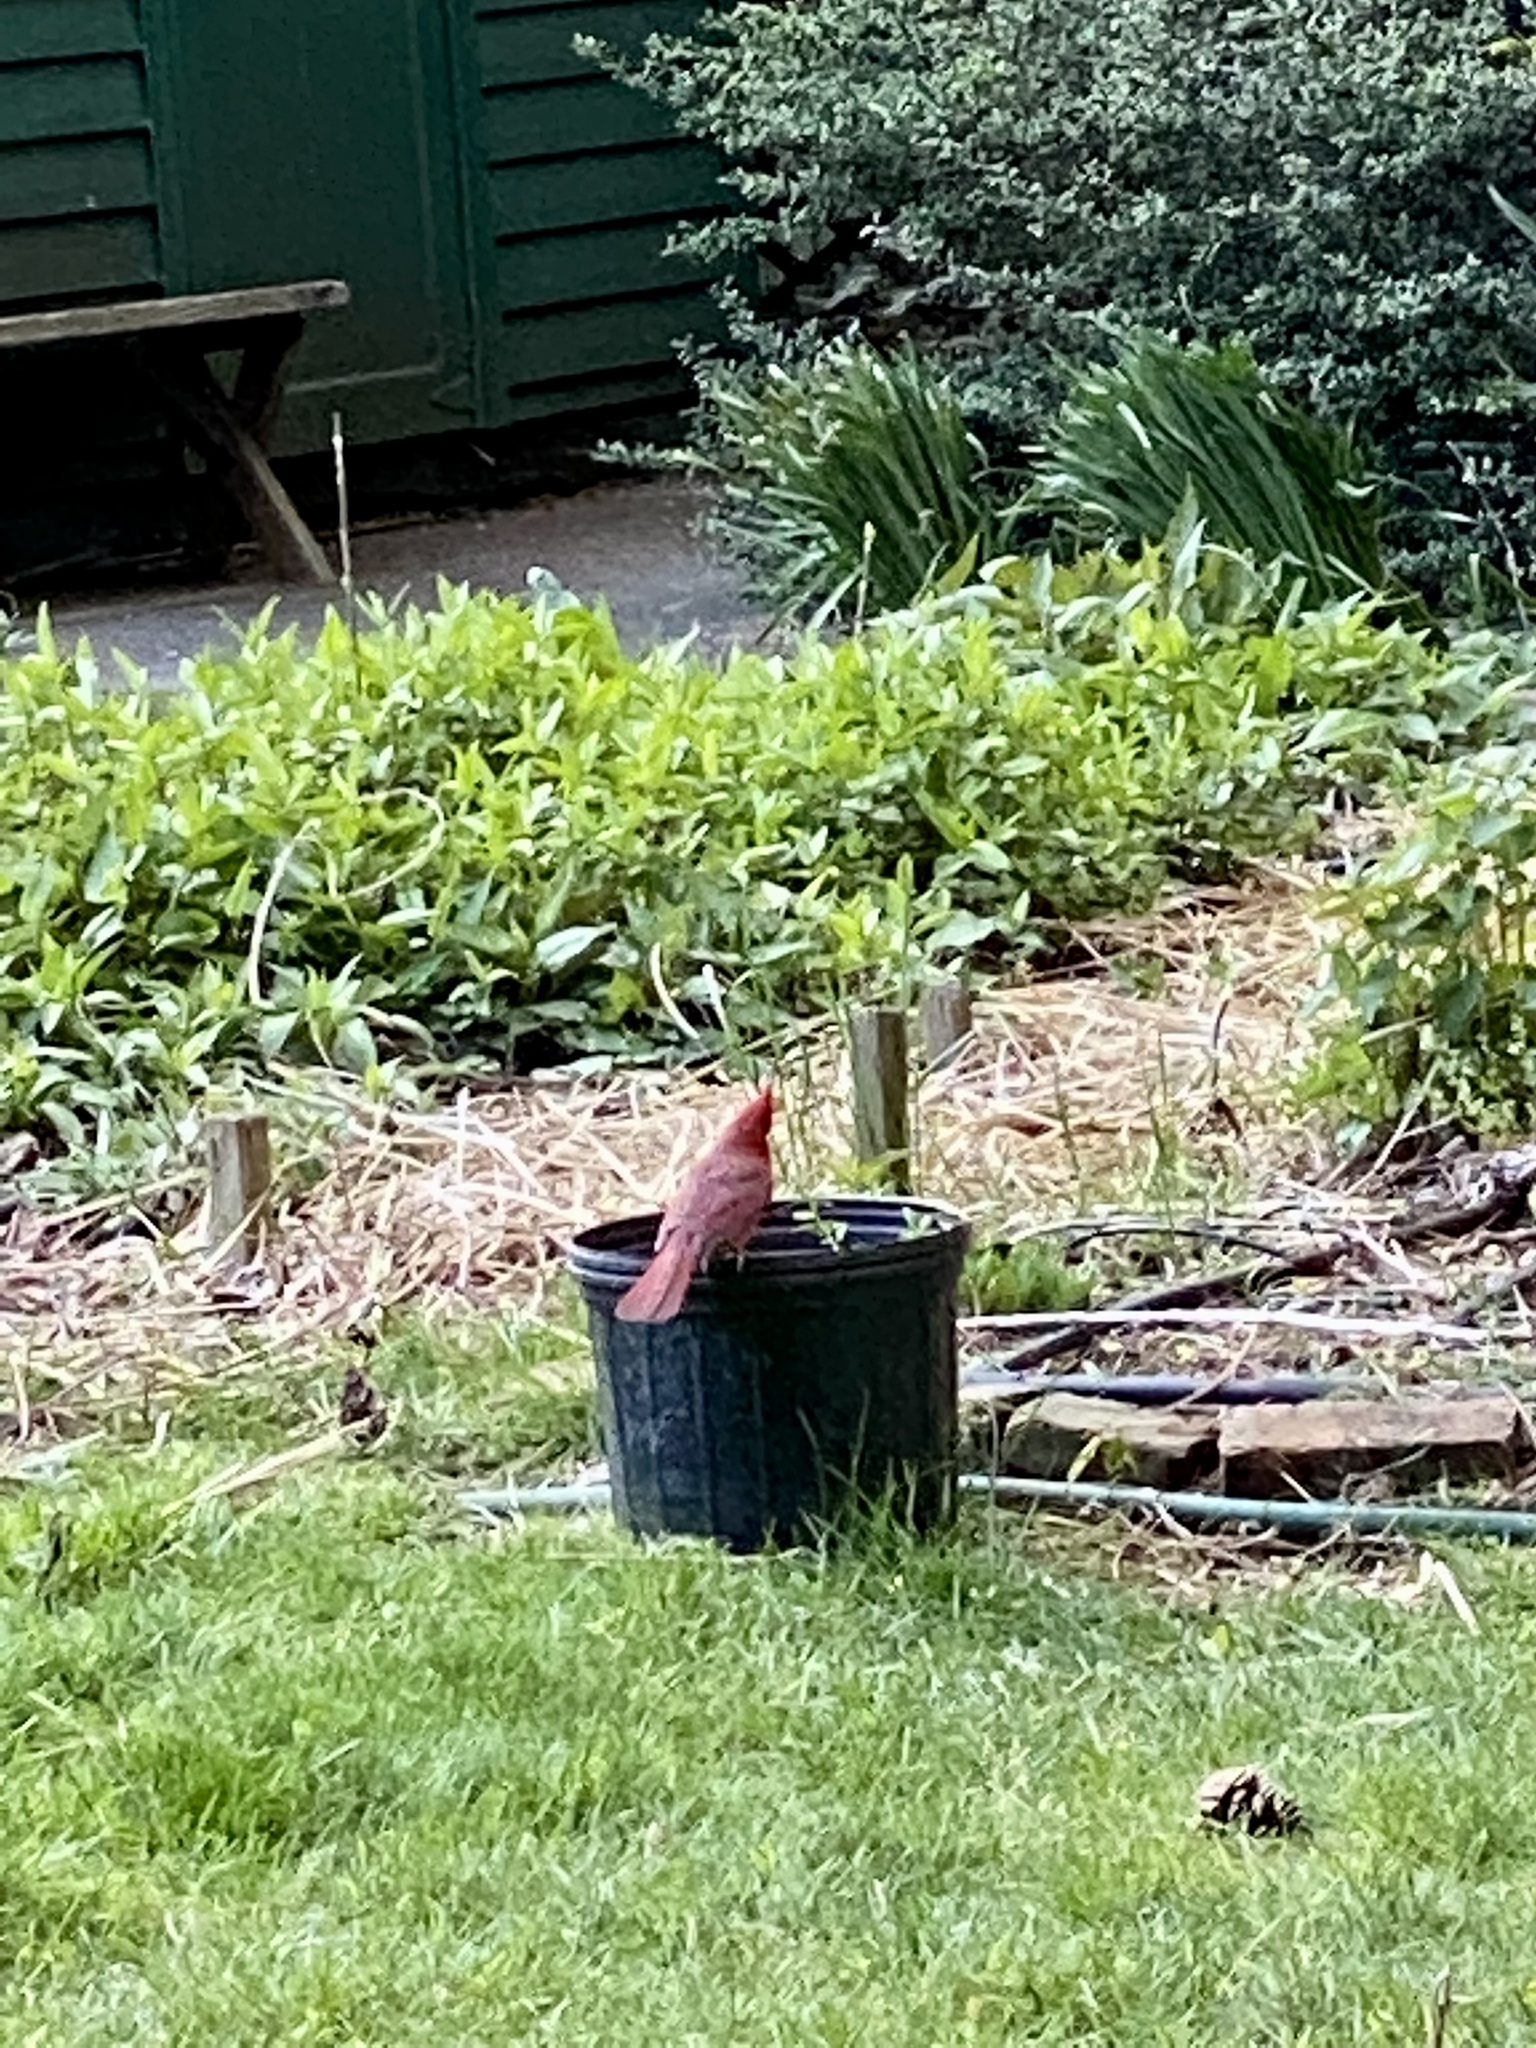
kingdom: Animalia
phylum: Chordata
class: Aves
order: Passeriformes
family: Cardinalidae
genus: Cardinalis
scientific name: Cardinalis cardinalis
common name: Northern cardinal
